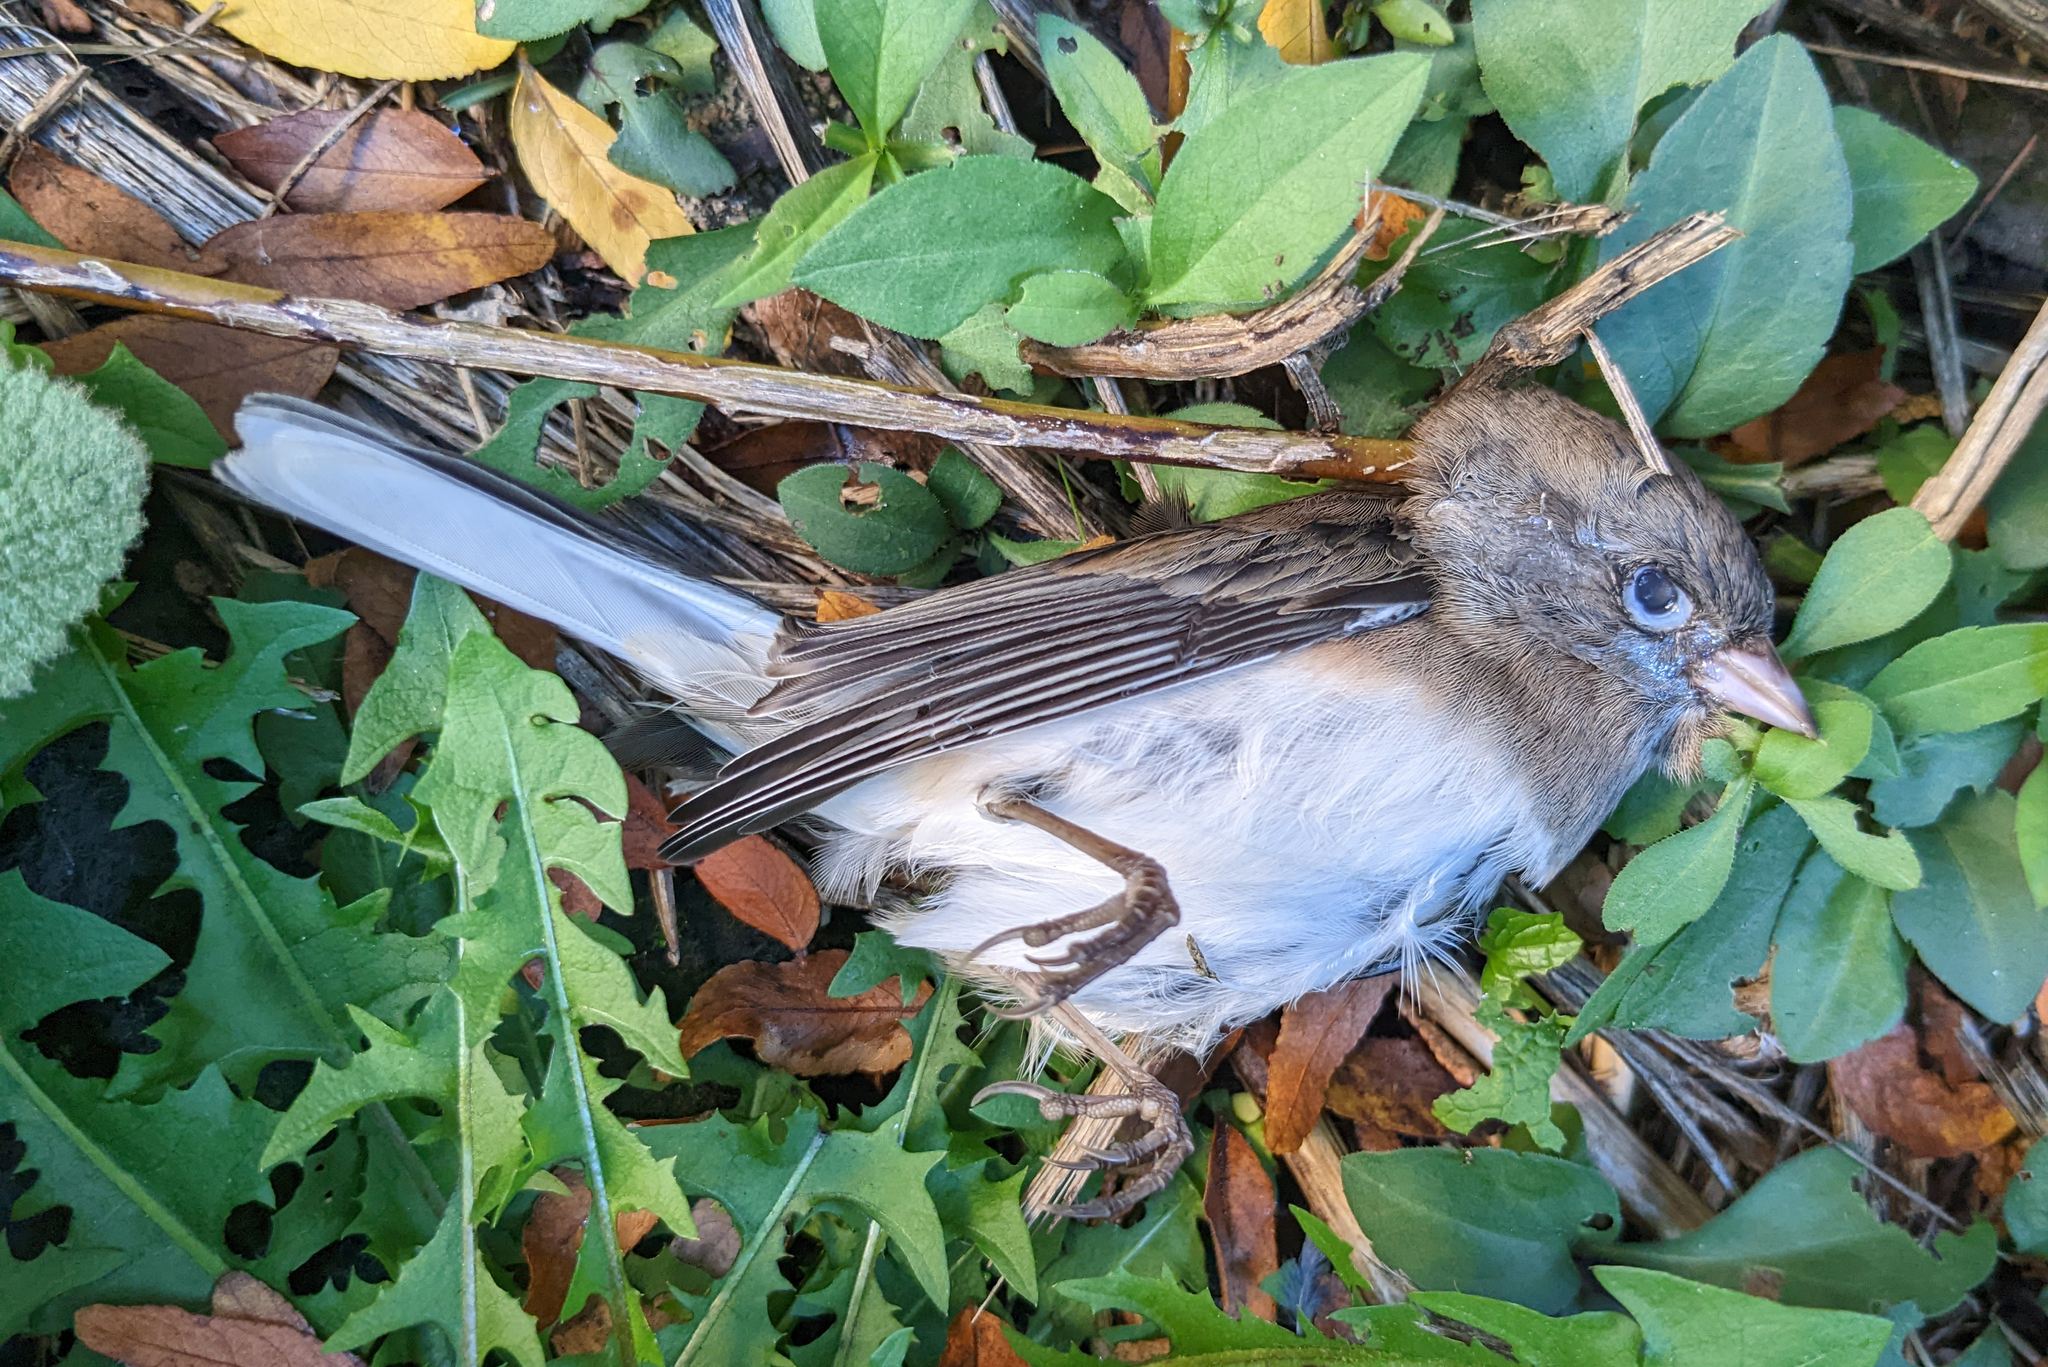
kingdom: Animalia
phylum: Chordata
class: Aves
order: Passeriformes
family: Passerellidae
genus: Junco
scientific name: Junco hyemalis
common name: Dark-eyed junco
